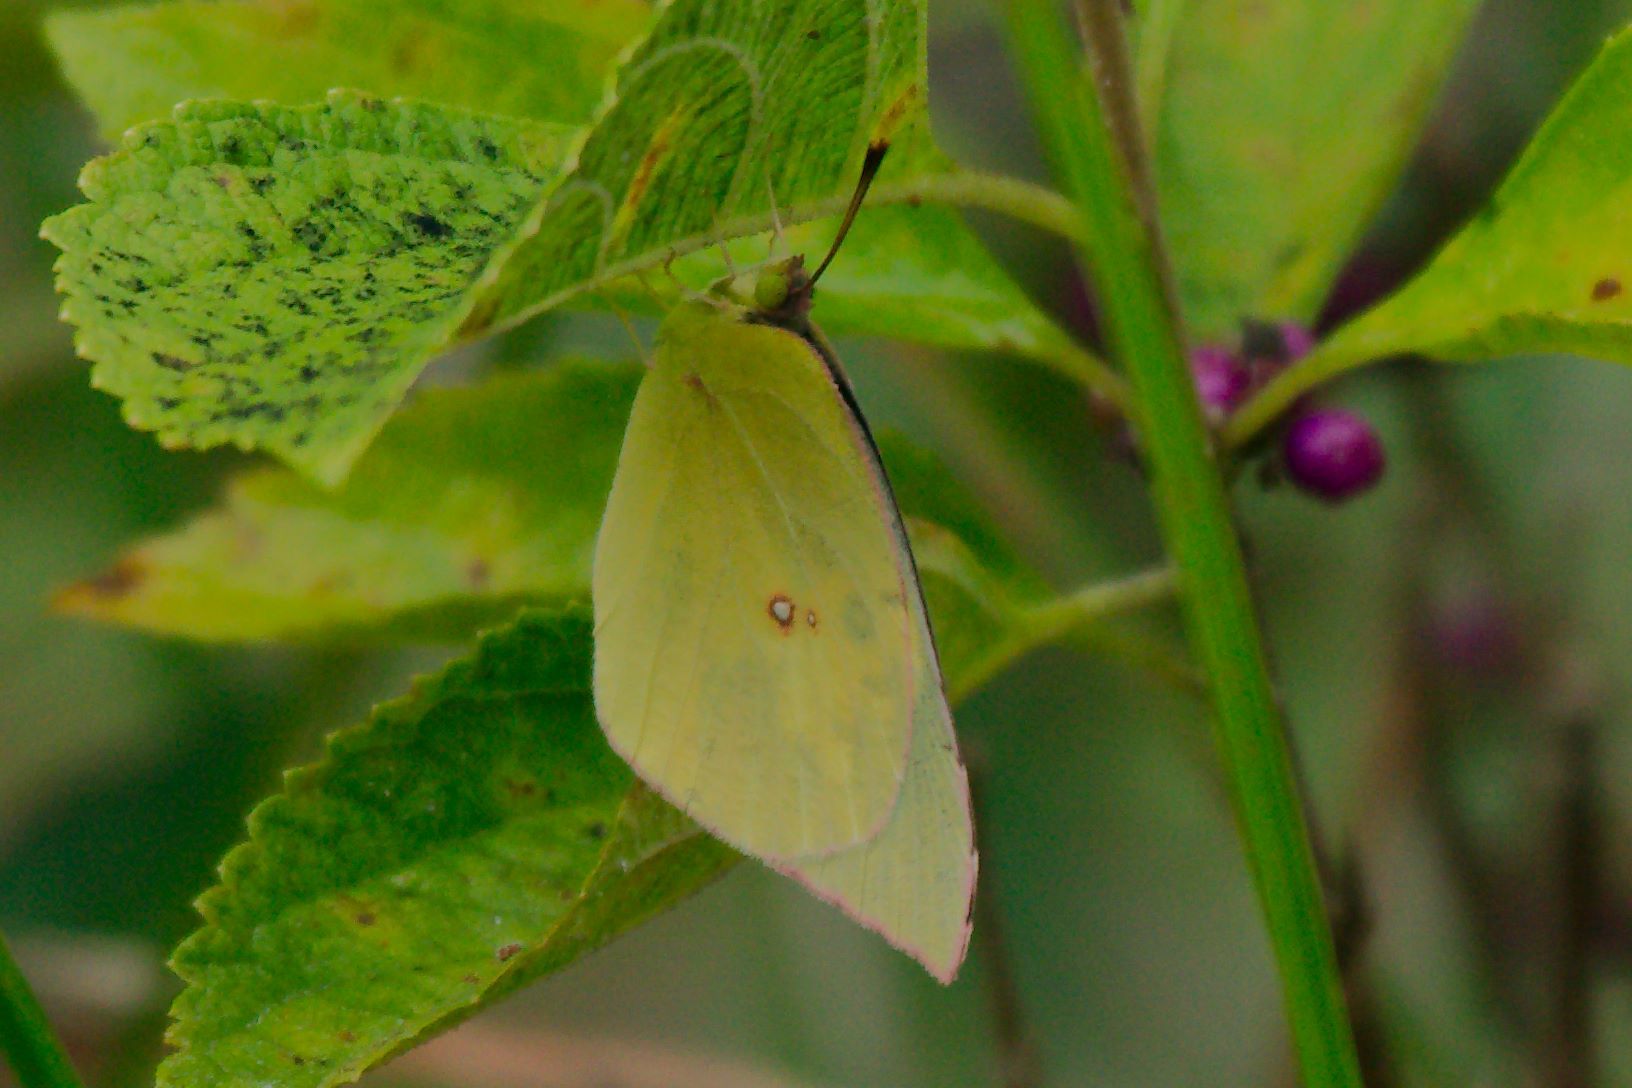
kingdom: Animalia
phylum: Arthropoda
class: Insecta
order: Lepidoptera
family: Pieridae
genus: Zerene
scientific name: Zerene cesonia
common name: Southern dogface
